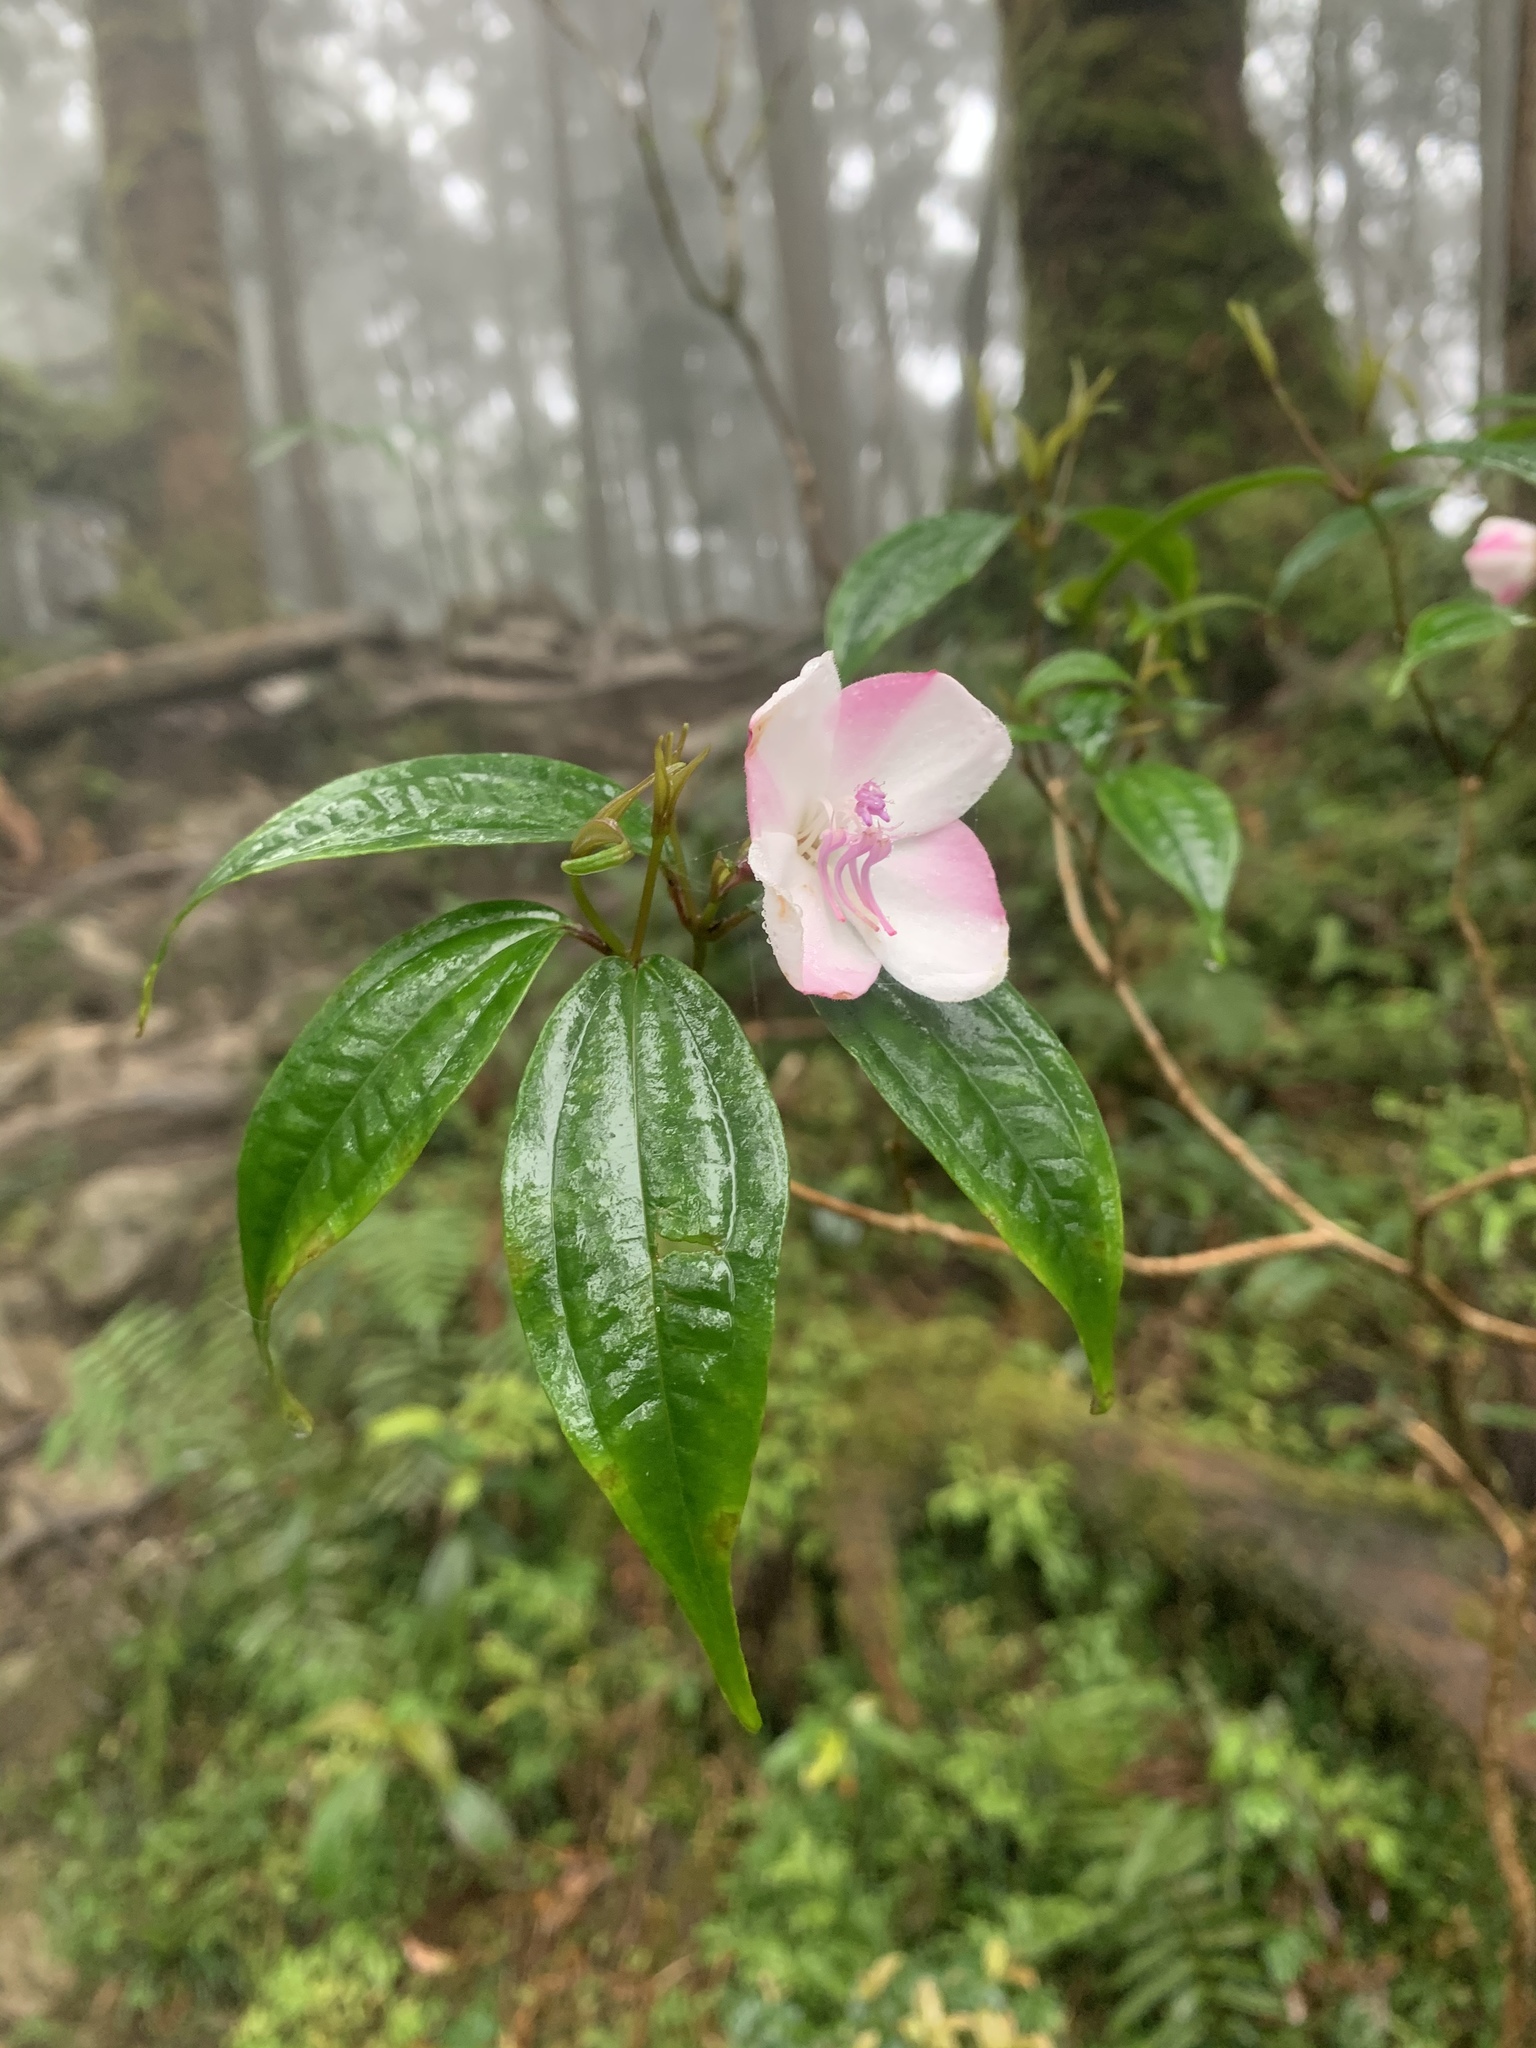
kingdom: Plantae
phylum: Tracheophyta
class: Magnoliopsida
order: Myrtales
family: Melastomataceae
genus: Barthea
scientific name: Barthea barthei
